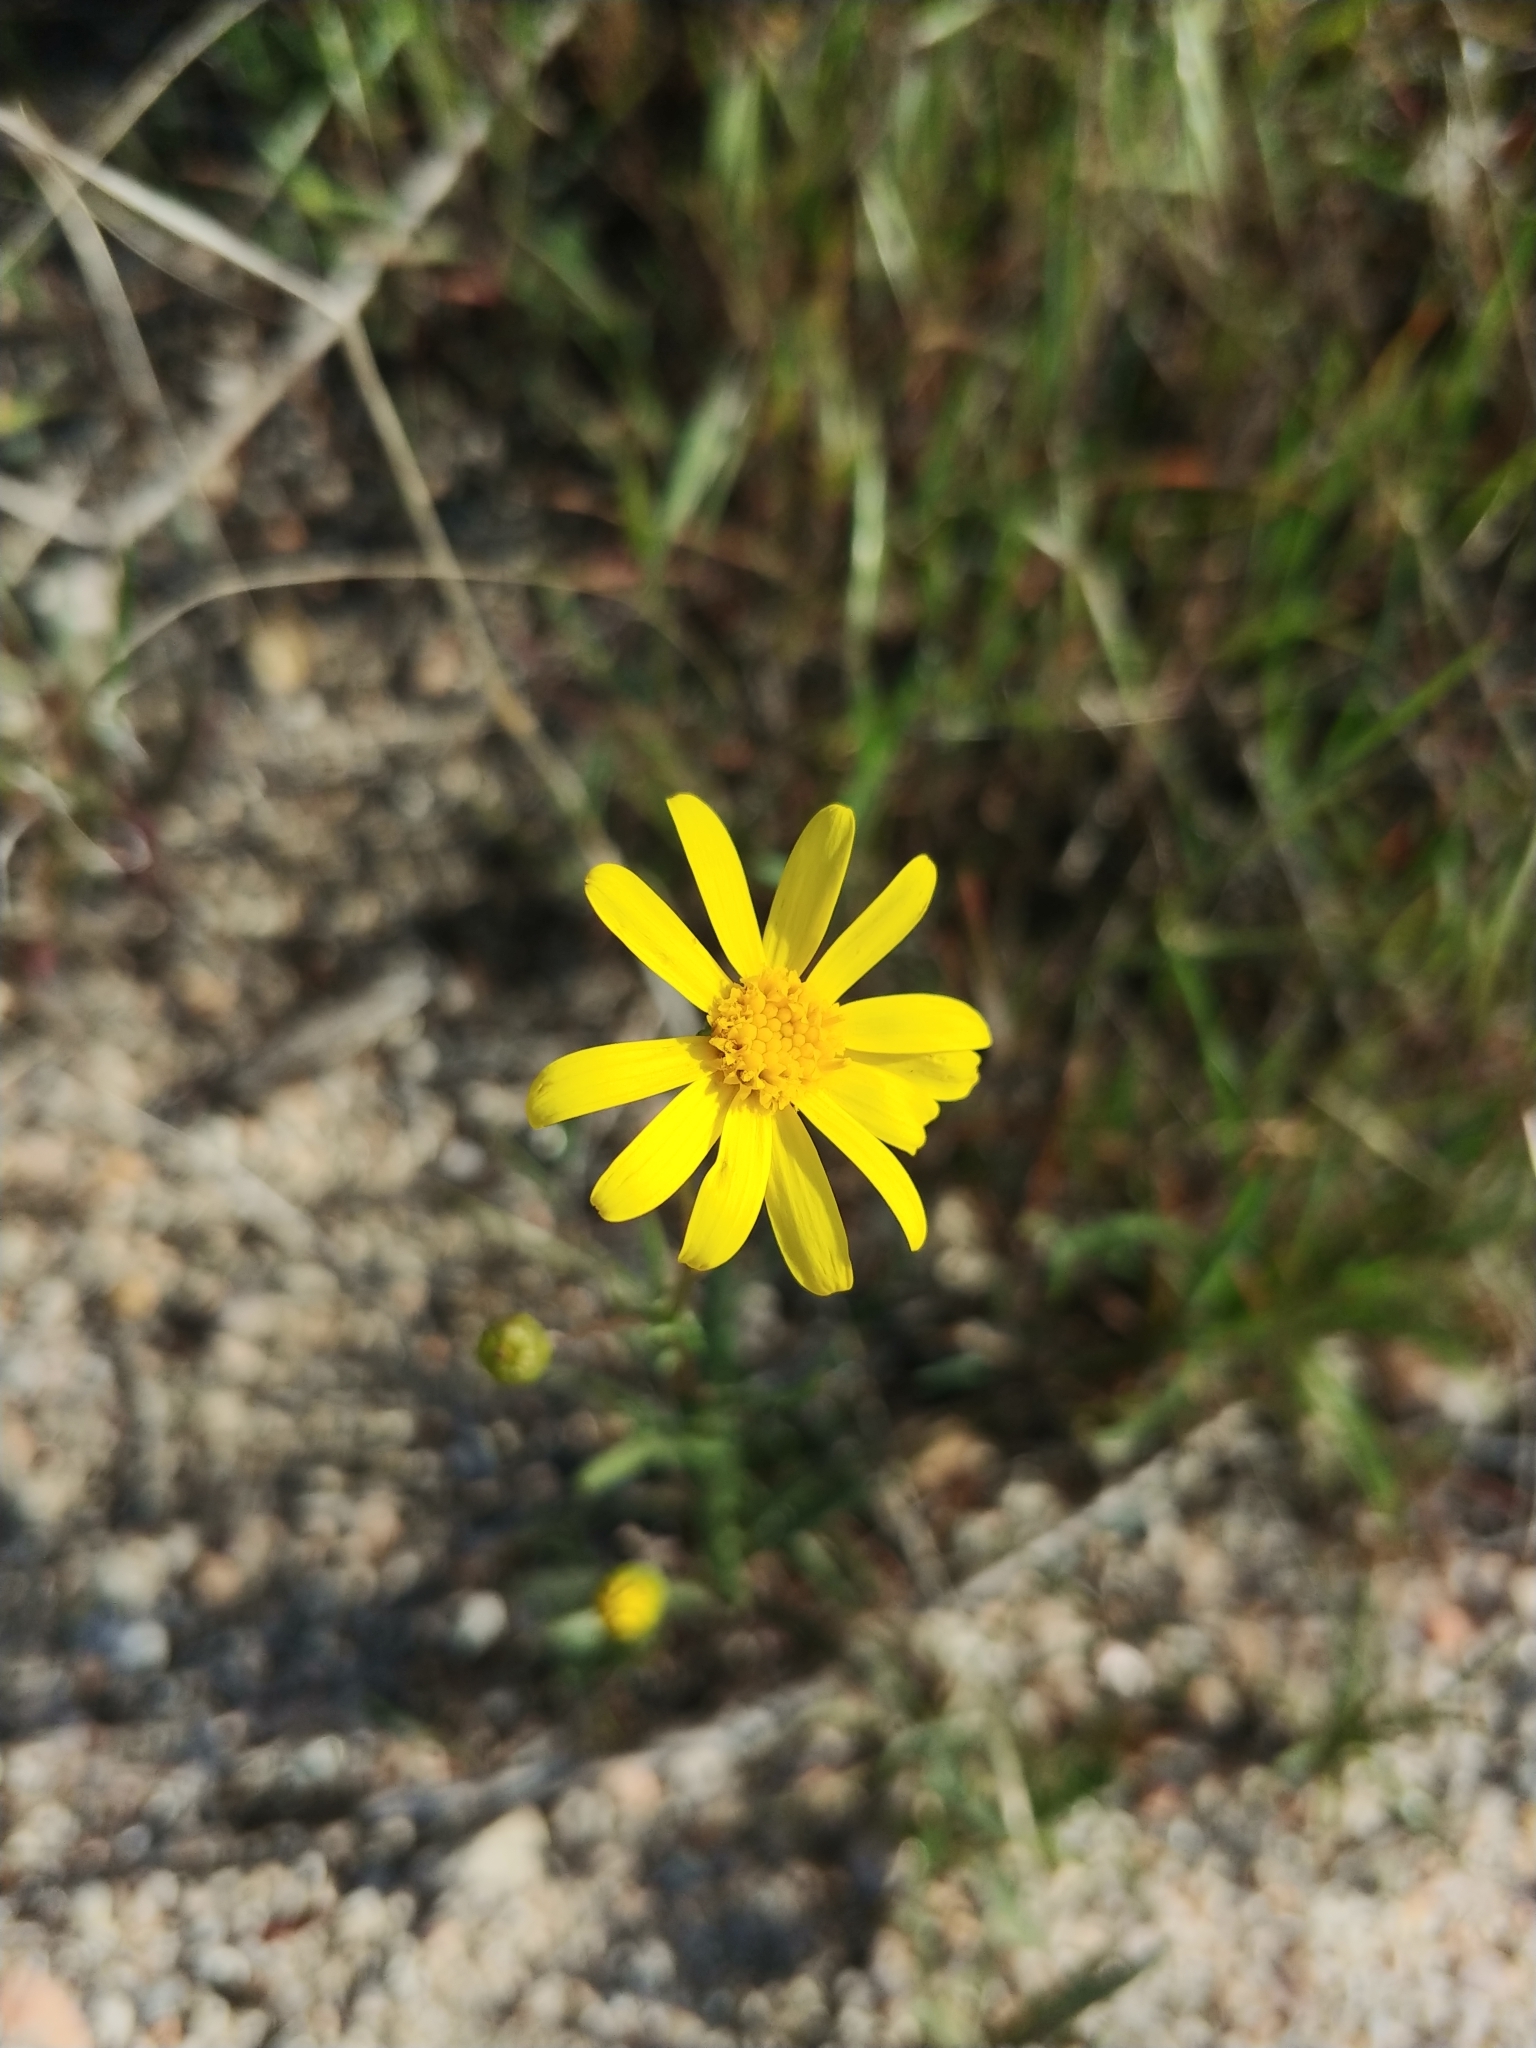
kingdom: Plantae
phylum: Tracheophyta
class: Magnoliopsida
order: Asterales
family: Asteraceae
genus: Senecio
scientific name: Senecio californicus
